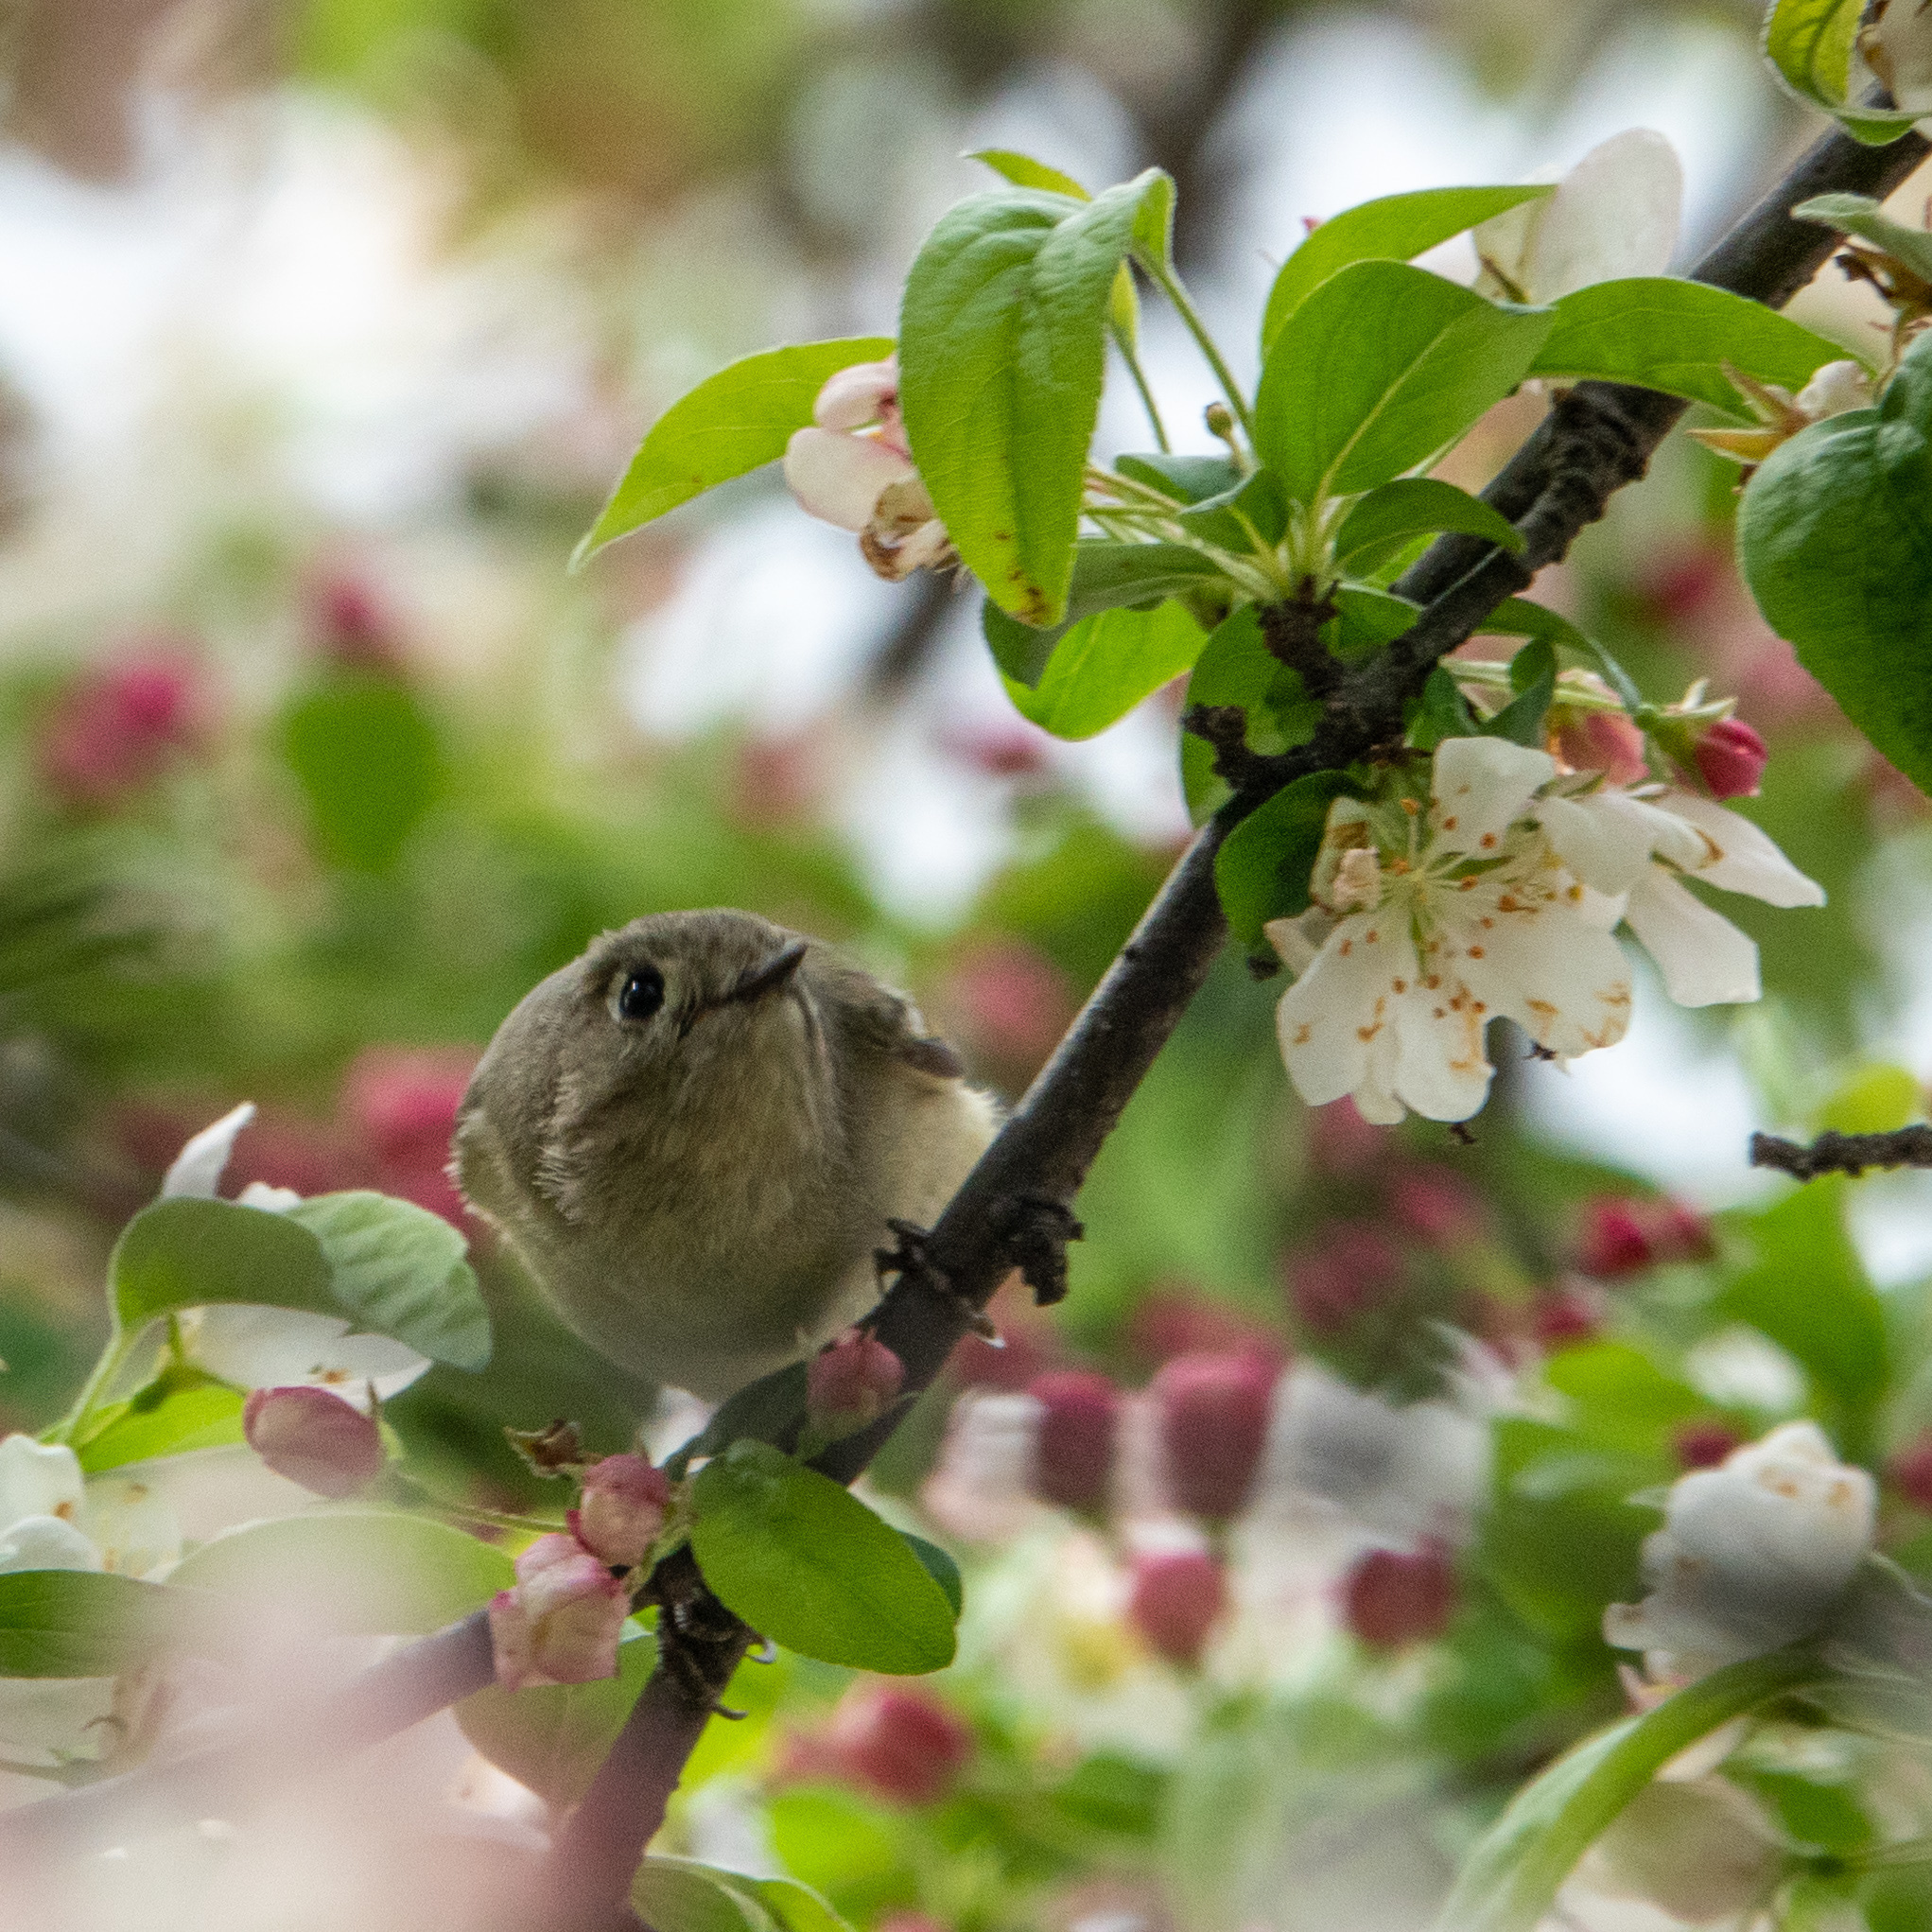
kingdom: Animalia
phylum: Chordata
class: Aves
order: Passeriformes
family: Regulidae
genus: Regulus
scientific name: Regulus calendula
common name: Ruby-crowned kinglet
